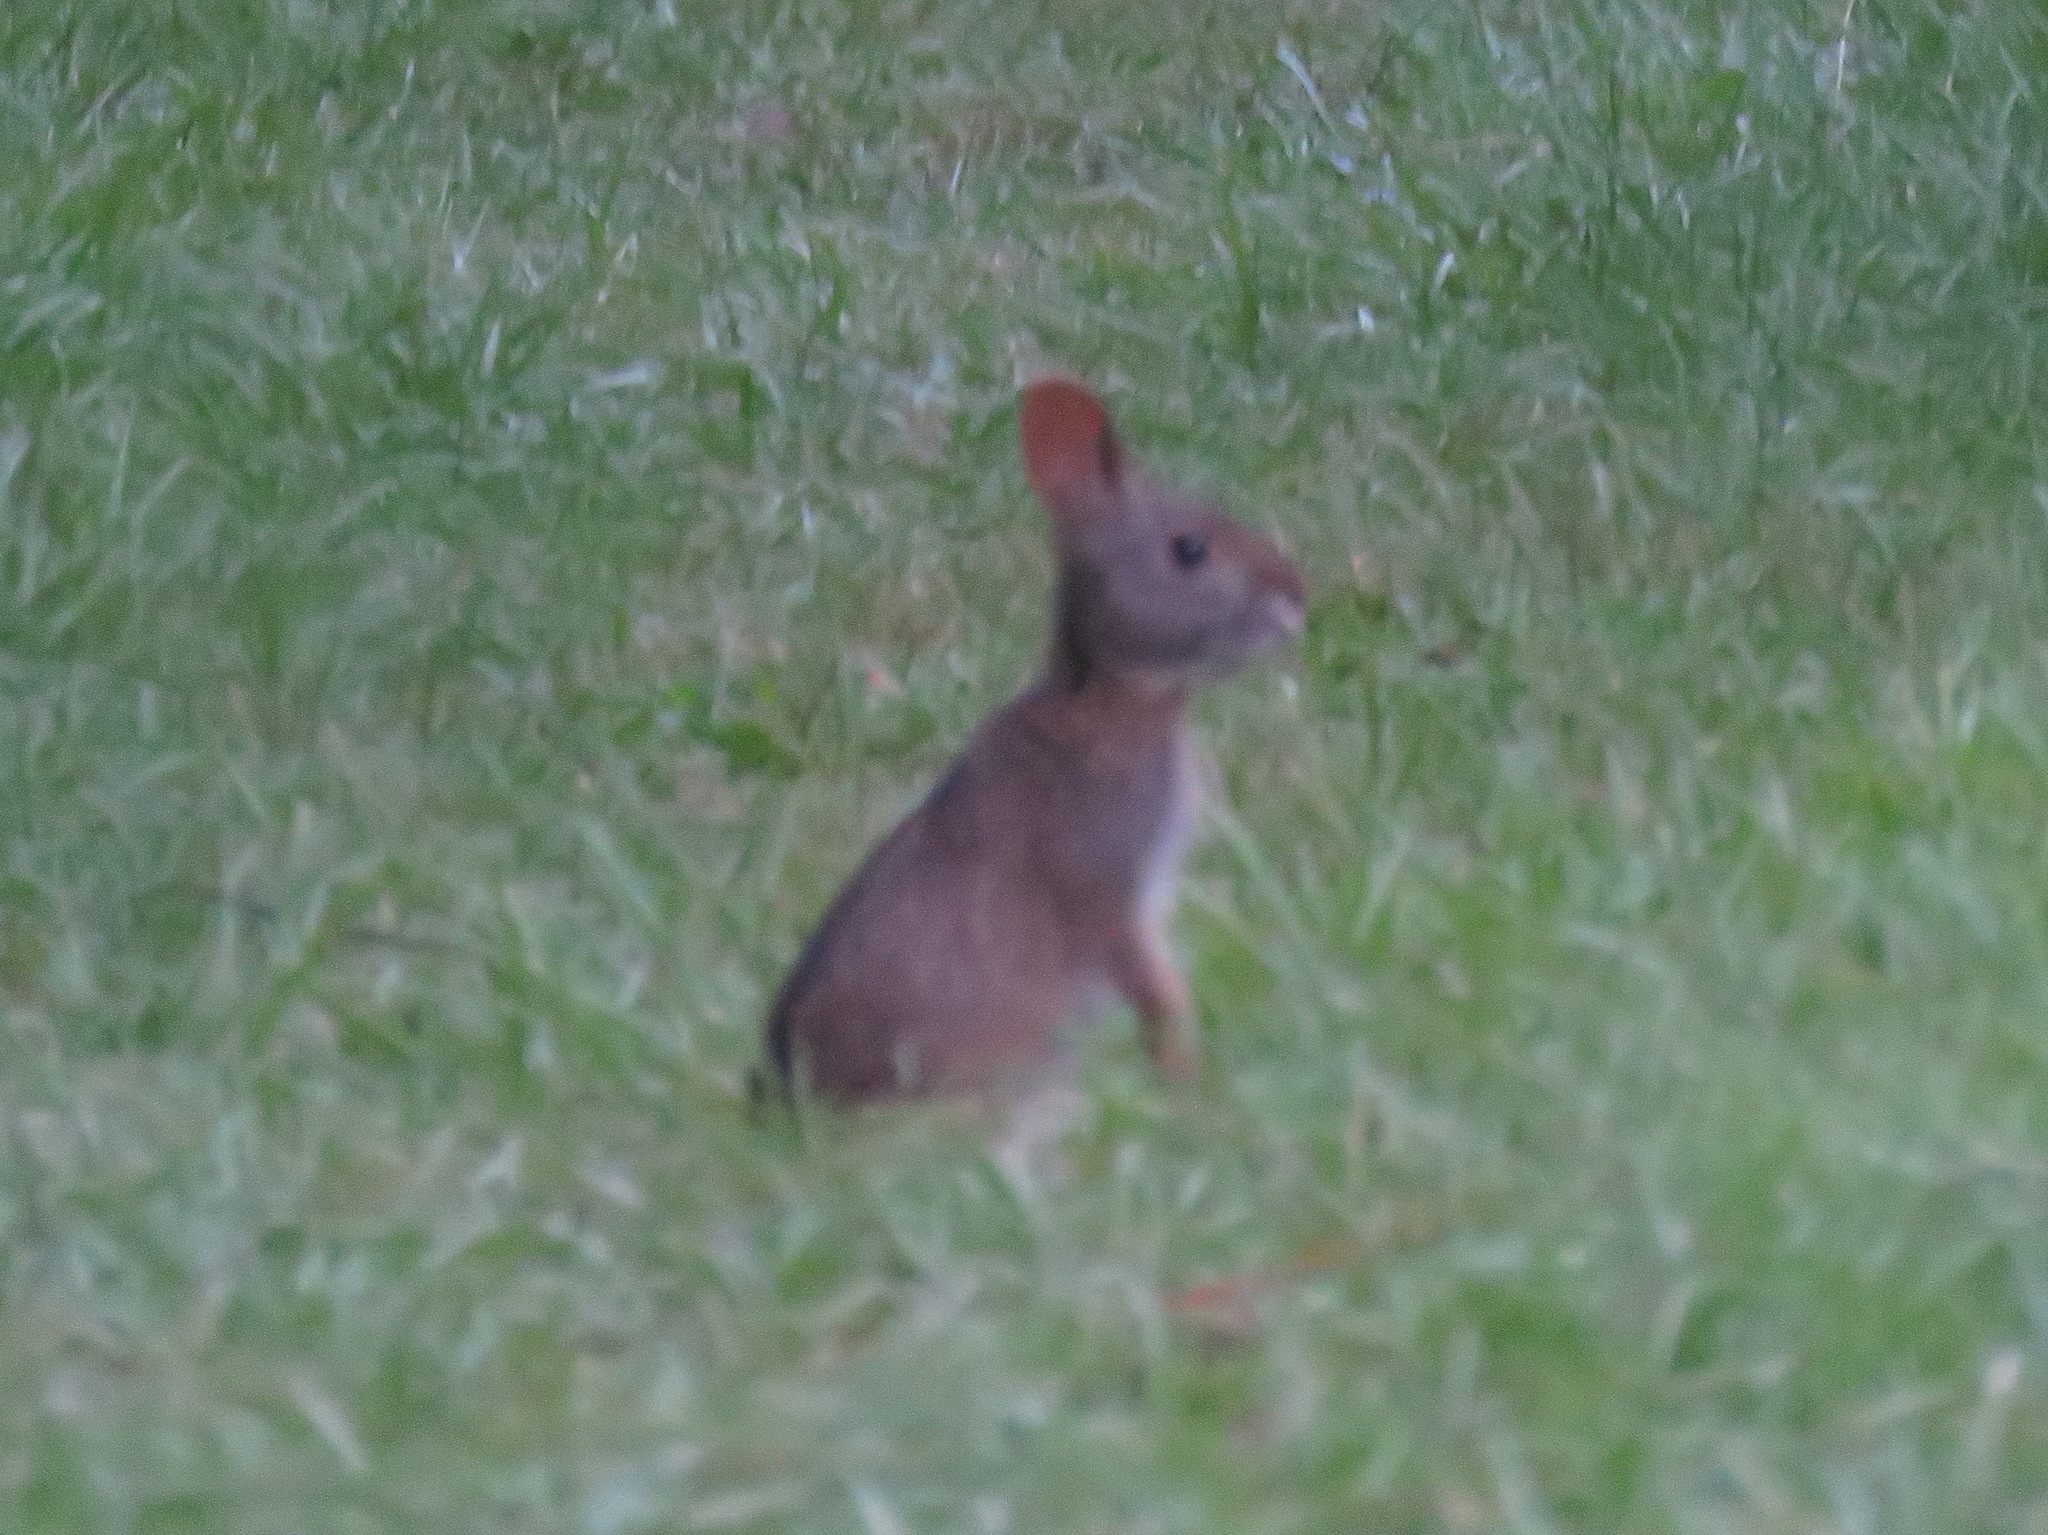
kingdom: Animalia
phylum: Chordata
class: Mammalia
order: Lagomorpha
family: Leporidae
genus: Sylvilagus
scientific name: Sylvilagus palustris
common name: Marsh rabbit
